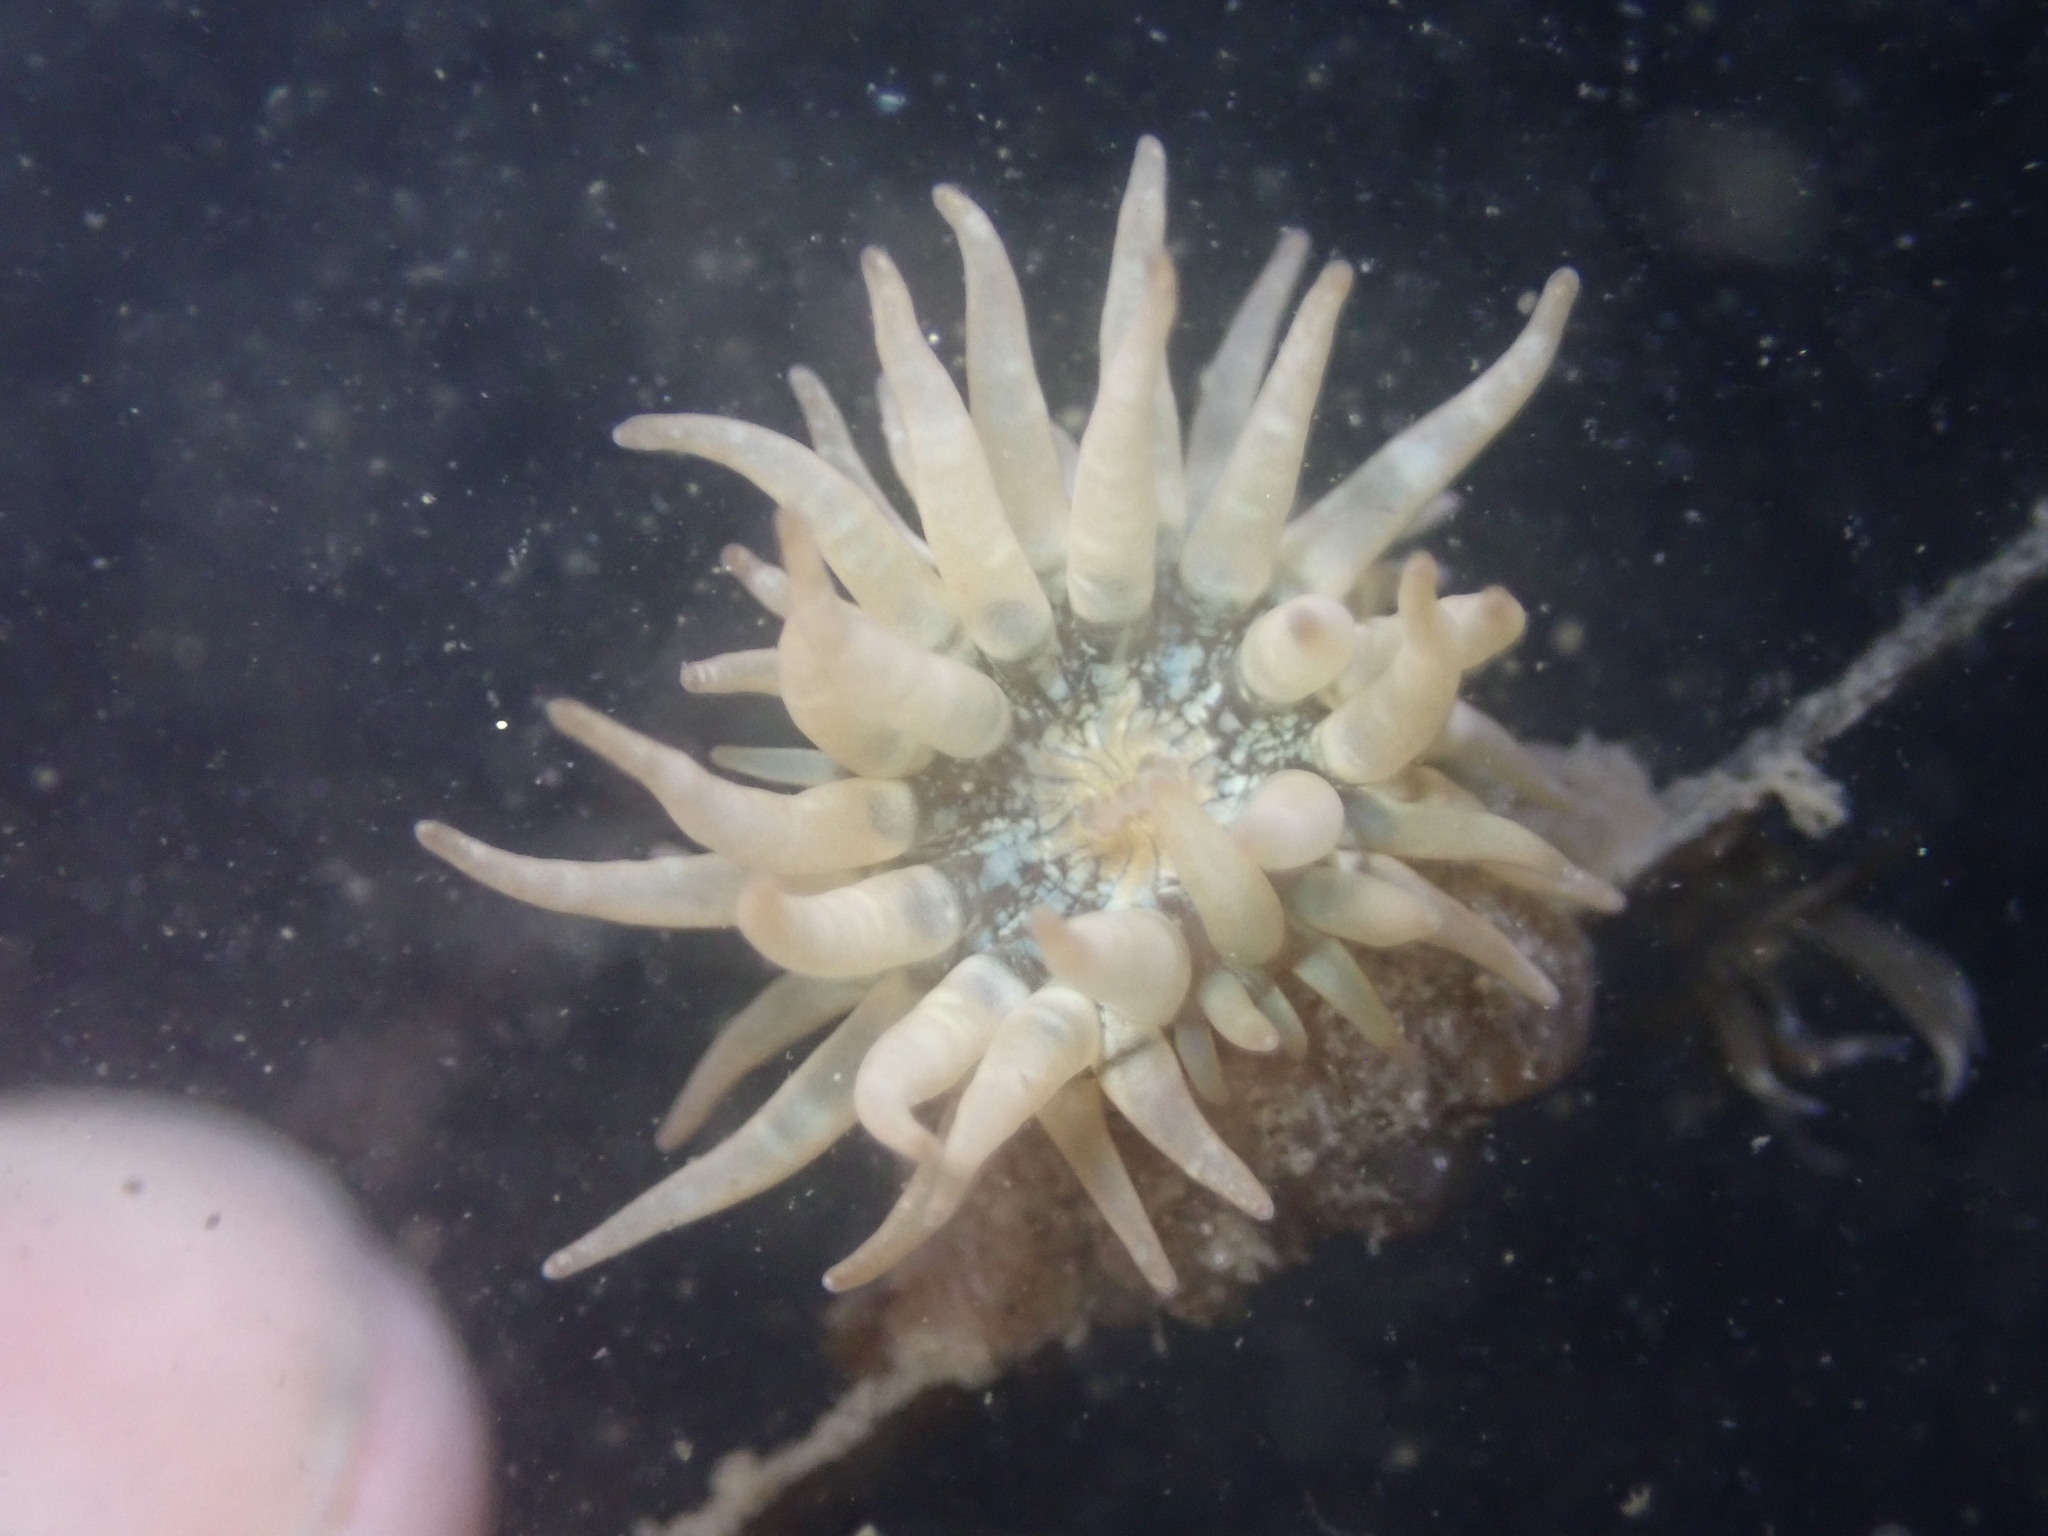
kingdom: Animalia
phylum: Cnidaria
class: Anthozoa
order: Actiniaria
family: Aiptasiidae
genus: Exaiptasia
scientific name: Exaiptasia diaphana
